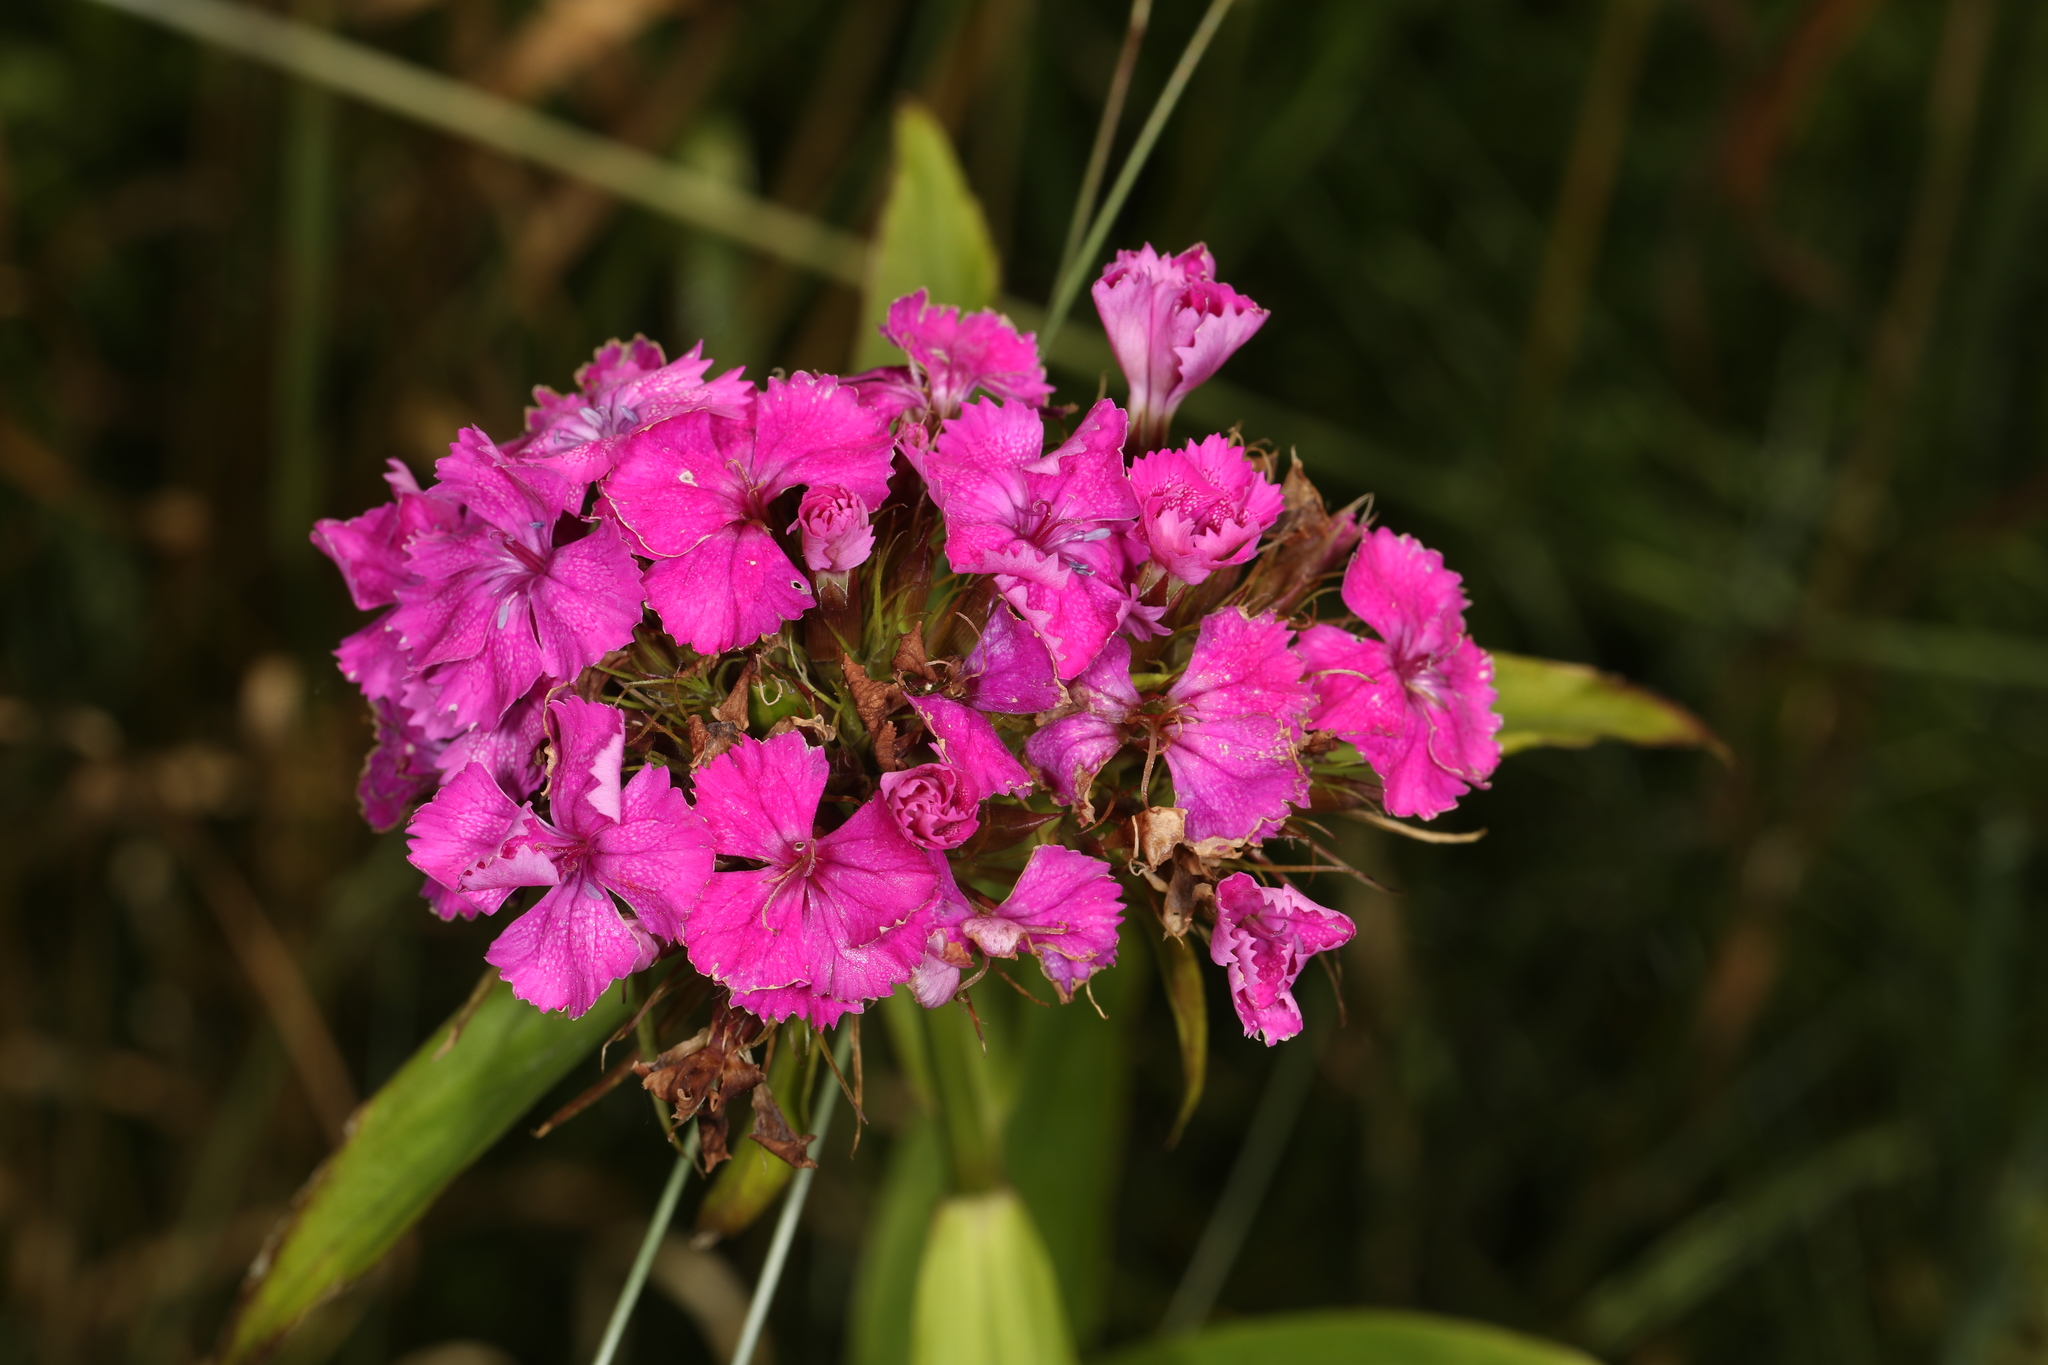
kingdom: Plantae
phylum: Tracheophyta
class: Magnoliopsida
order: Caryophyllales
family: Caryophyllaceae
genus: Dianthus
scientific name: Dianthus barbatus
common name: Sweet-william
